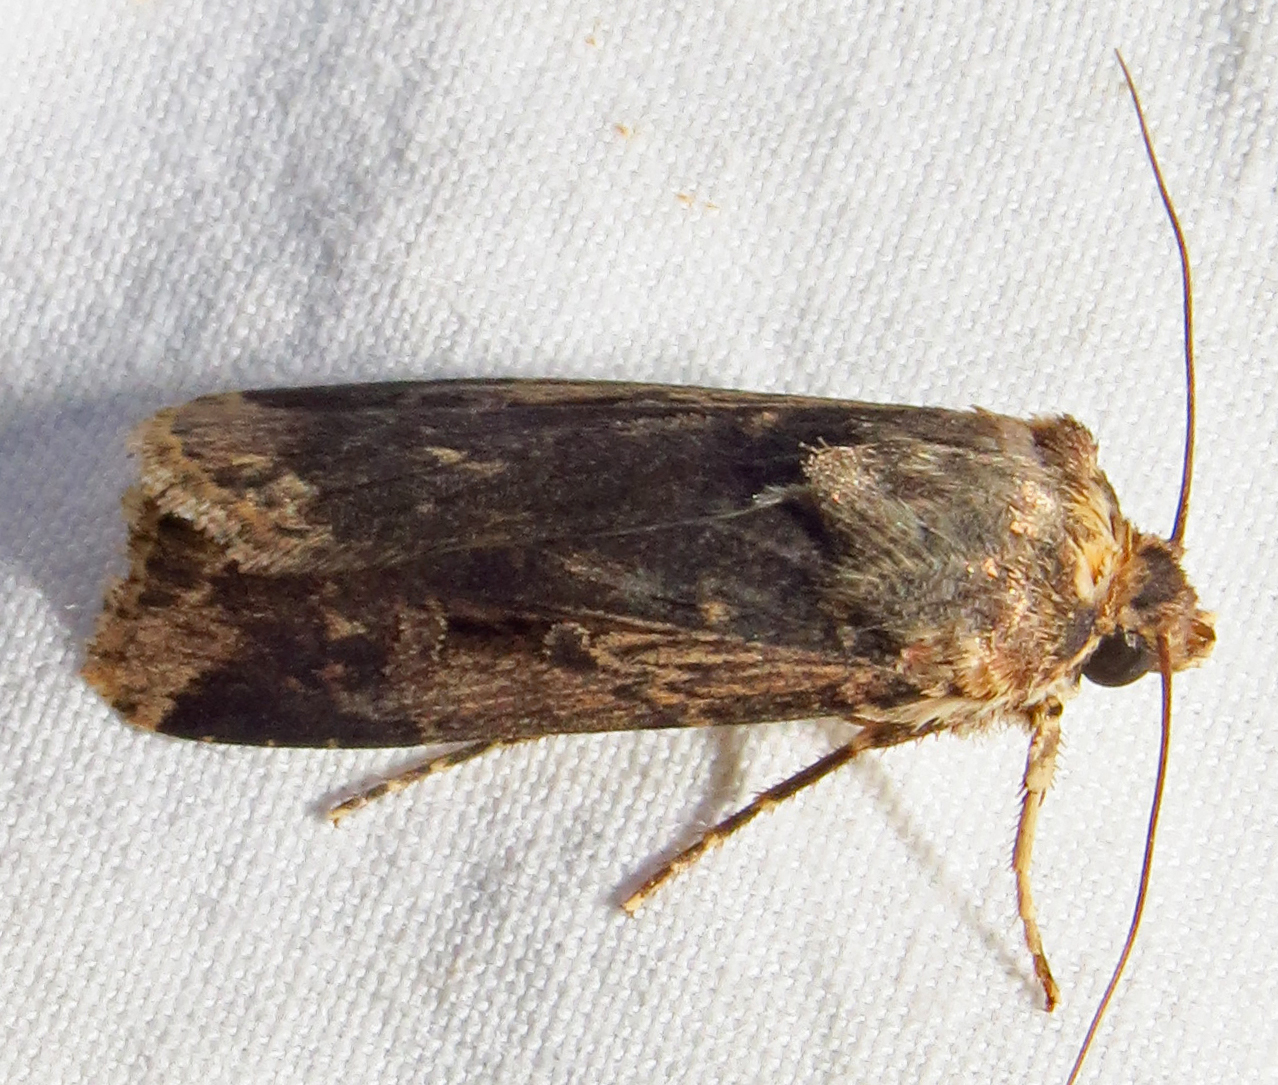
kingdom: Animalia
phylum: Arthropoda
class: Insecta
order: Lepidoptera
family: Noctuidae
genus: Feltia
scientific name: Feltia subterranea
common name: Granulate cutworm
